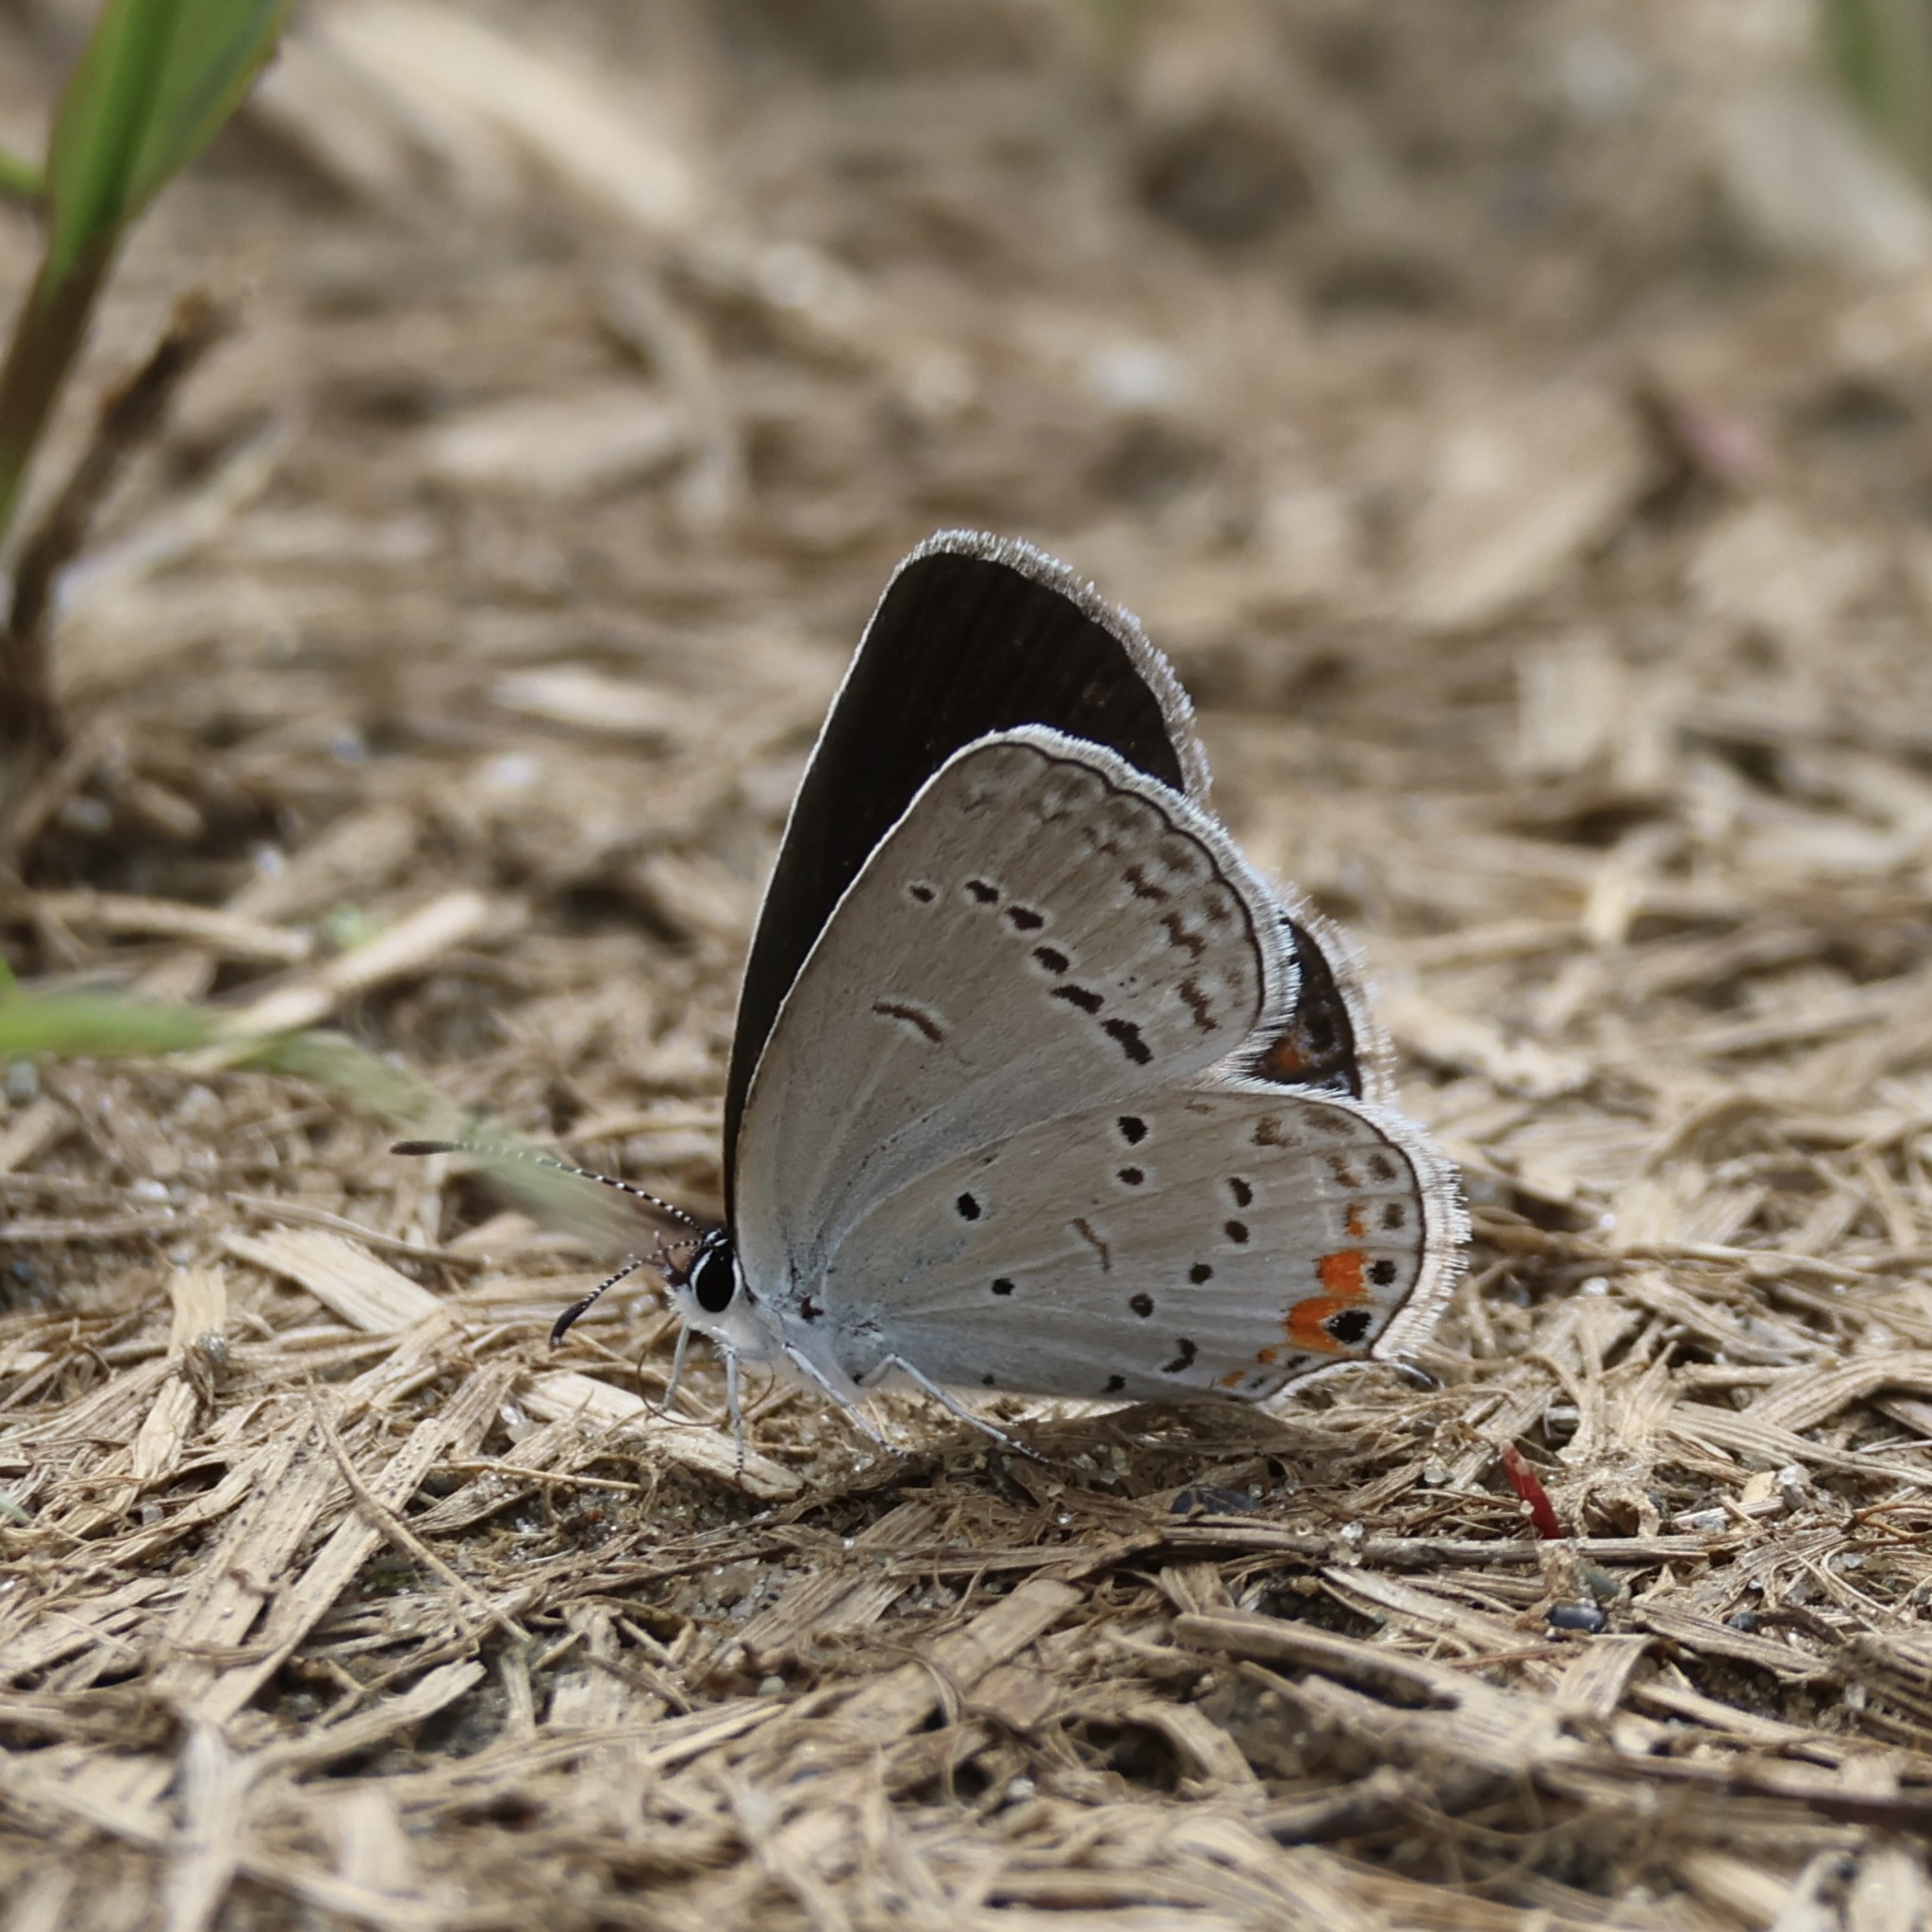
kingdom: Animalia
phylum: Arthropoda
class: Insecta
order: Lepidoptera
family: Lycaenidae
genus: Elkalyce
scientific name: Elkalyce comyntas
